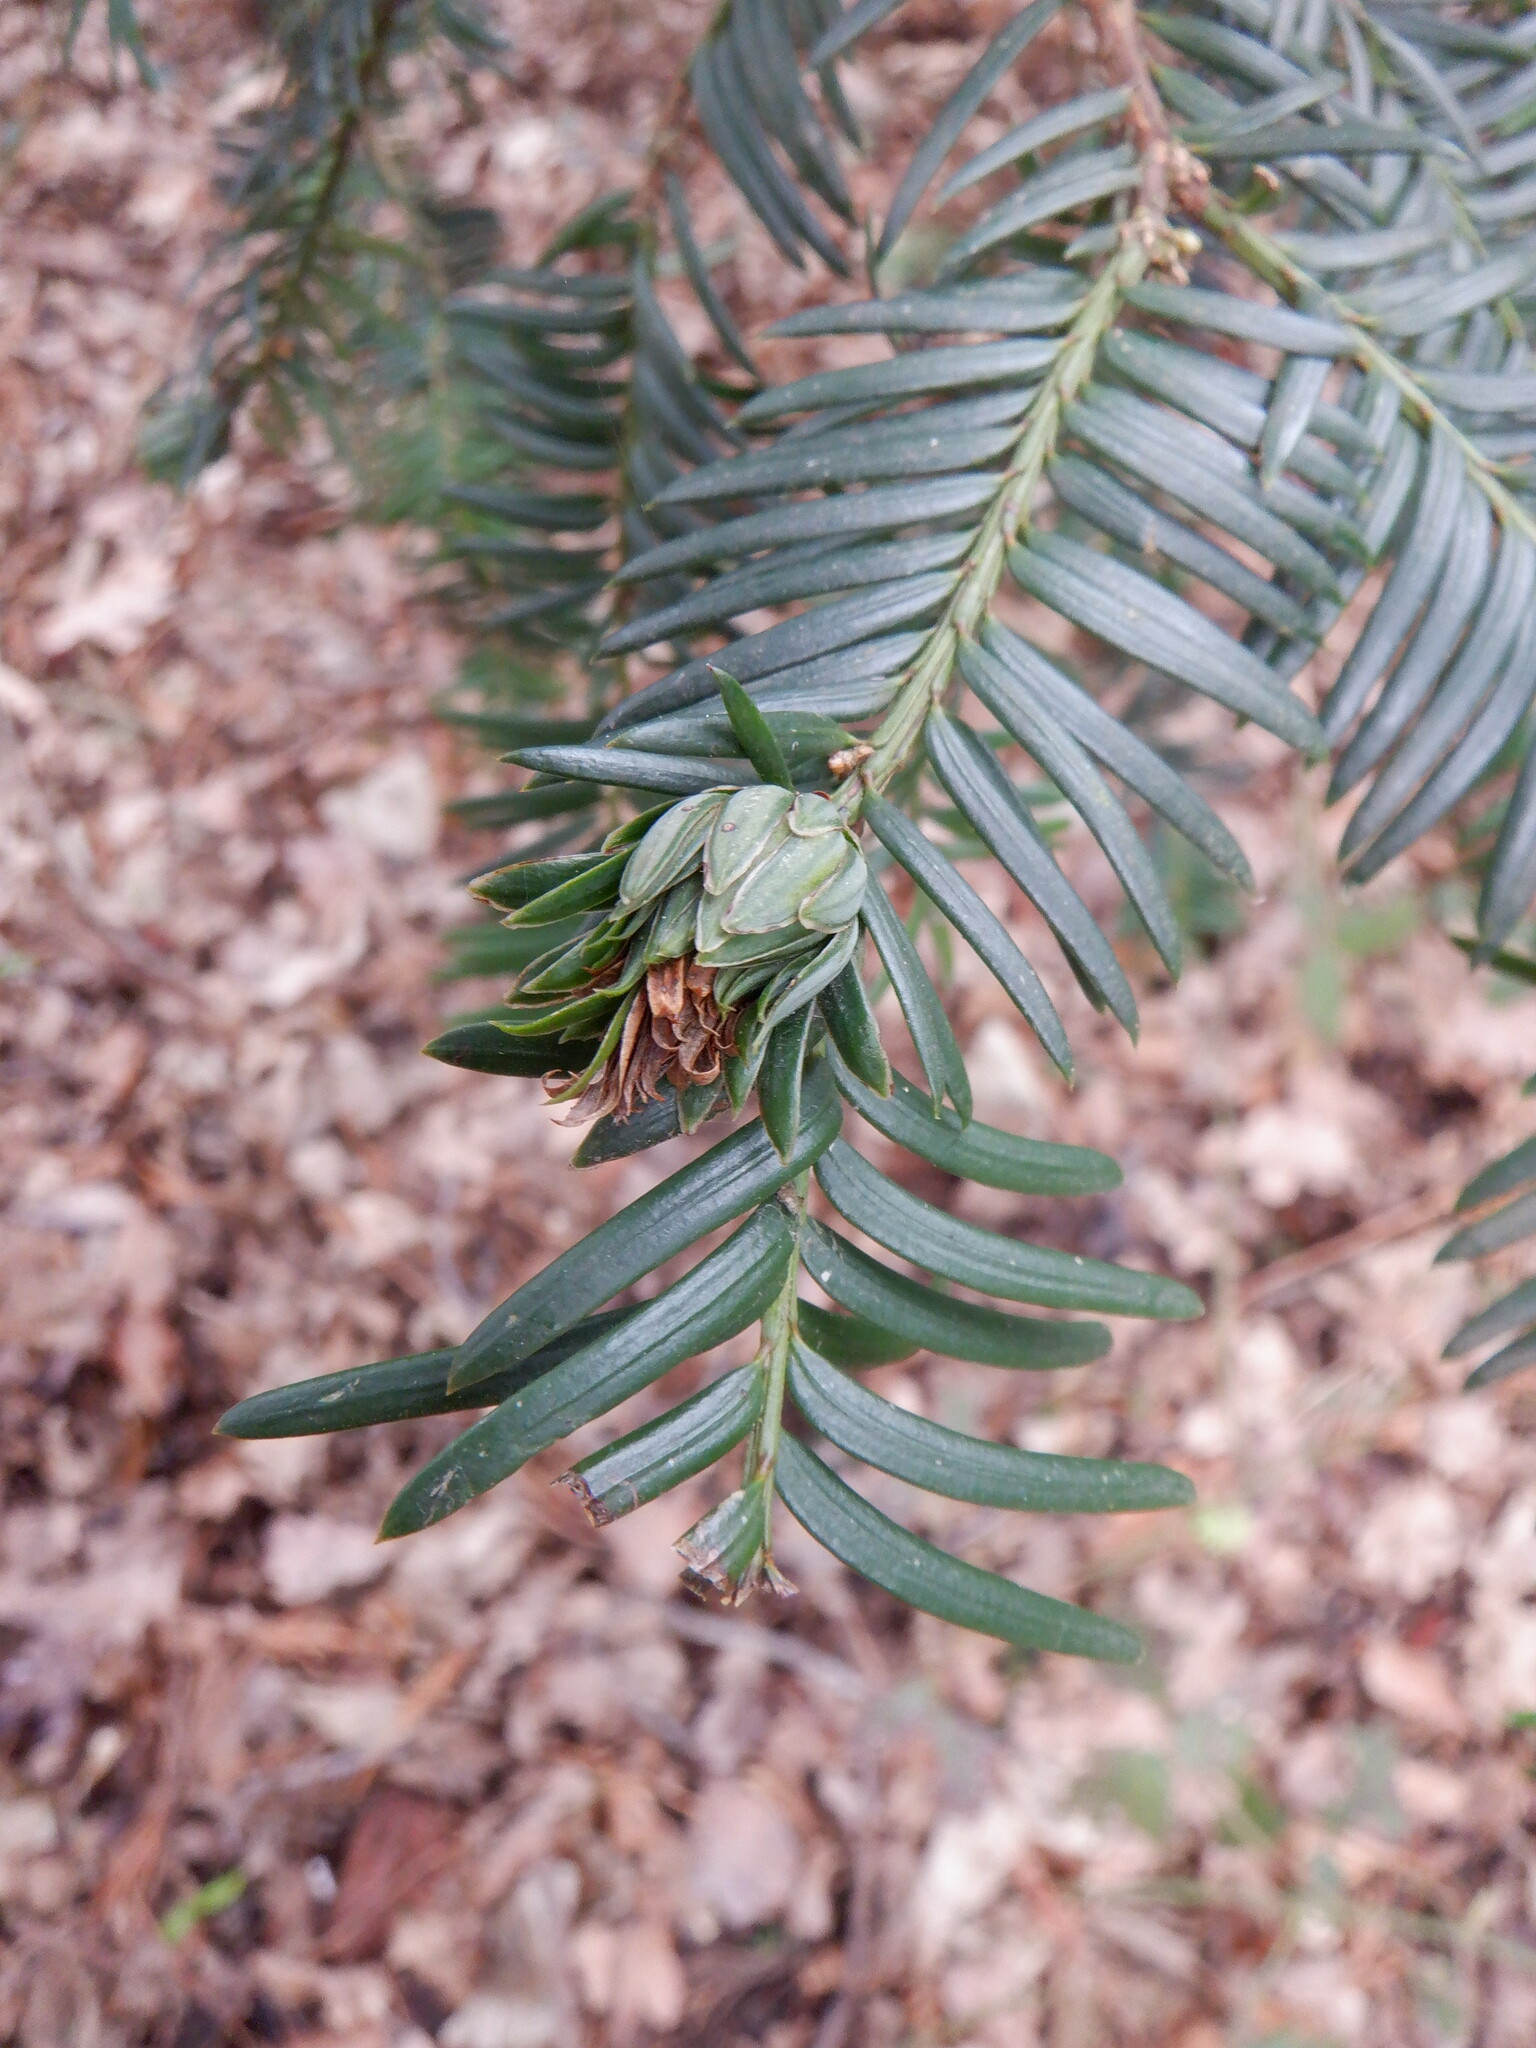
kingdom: Animalia
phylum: Arthropoda
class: Insecta
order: Diptera
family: Cecidomyiidae
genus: Taxomyia
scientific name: Taxomyia taxi
